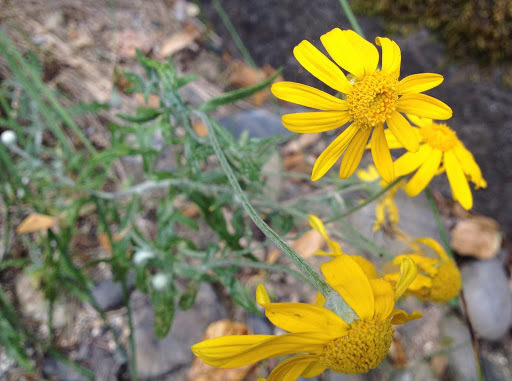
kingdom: Plantae
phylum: Tracheophyta
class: Magnoliopsida
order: Asterales
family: Asteraceae
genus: Eriophyllum
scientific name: Eriophyllum lanatum
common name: Common woolly-sunflower
